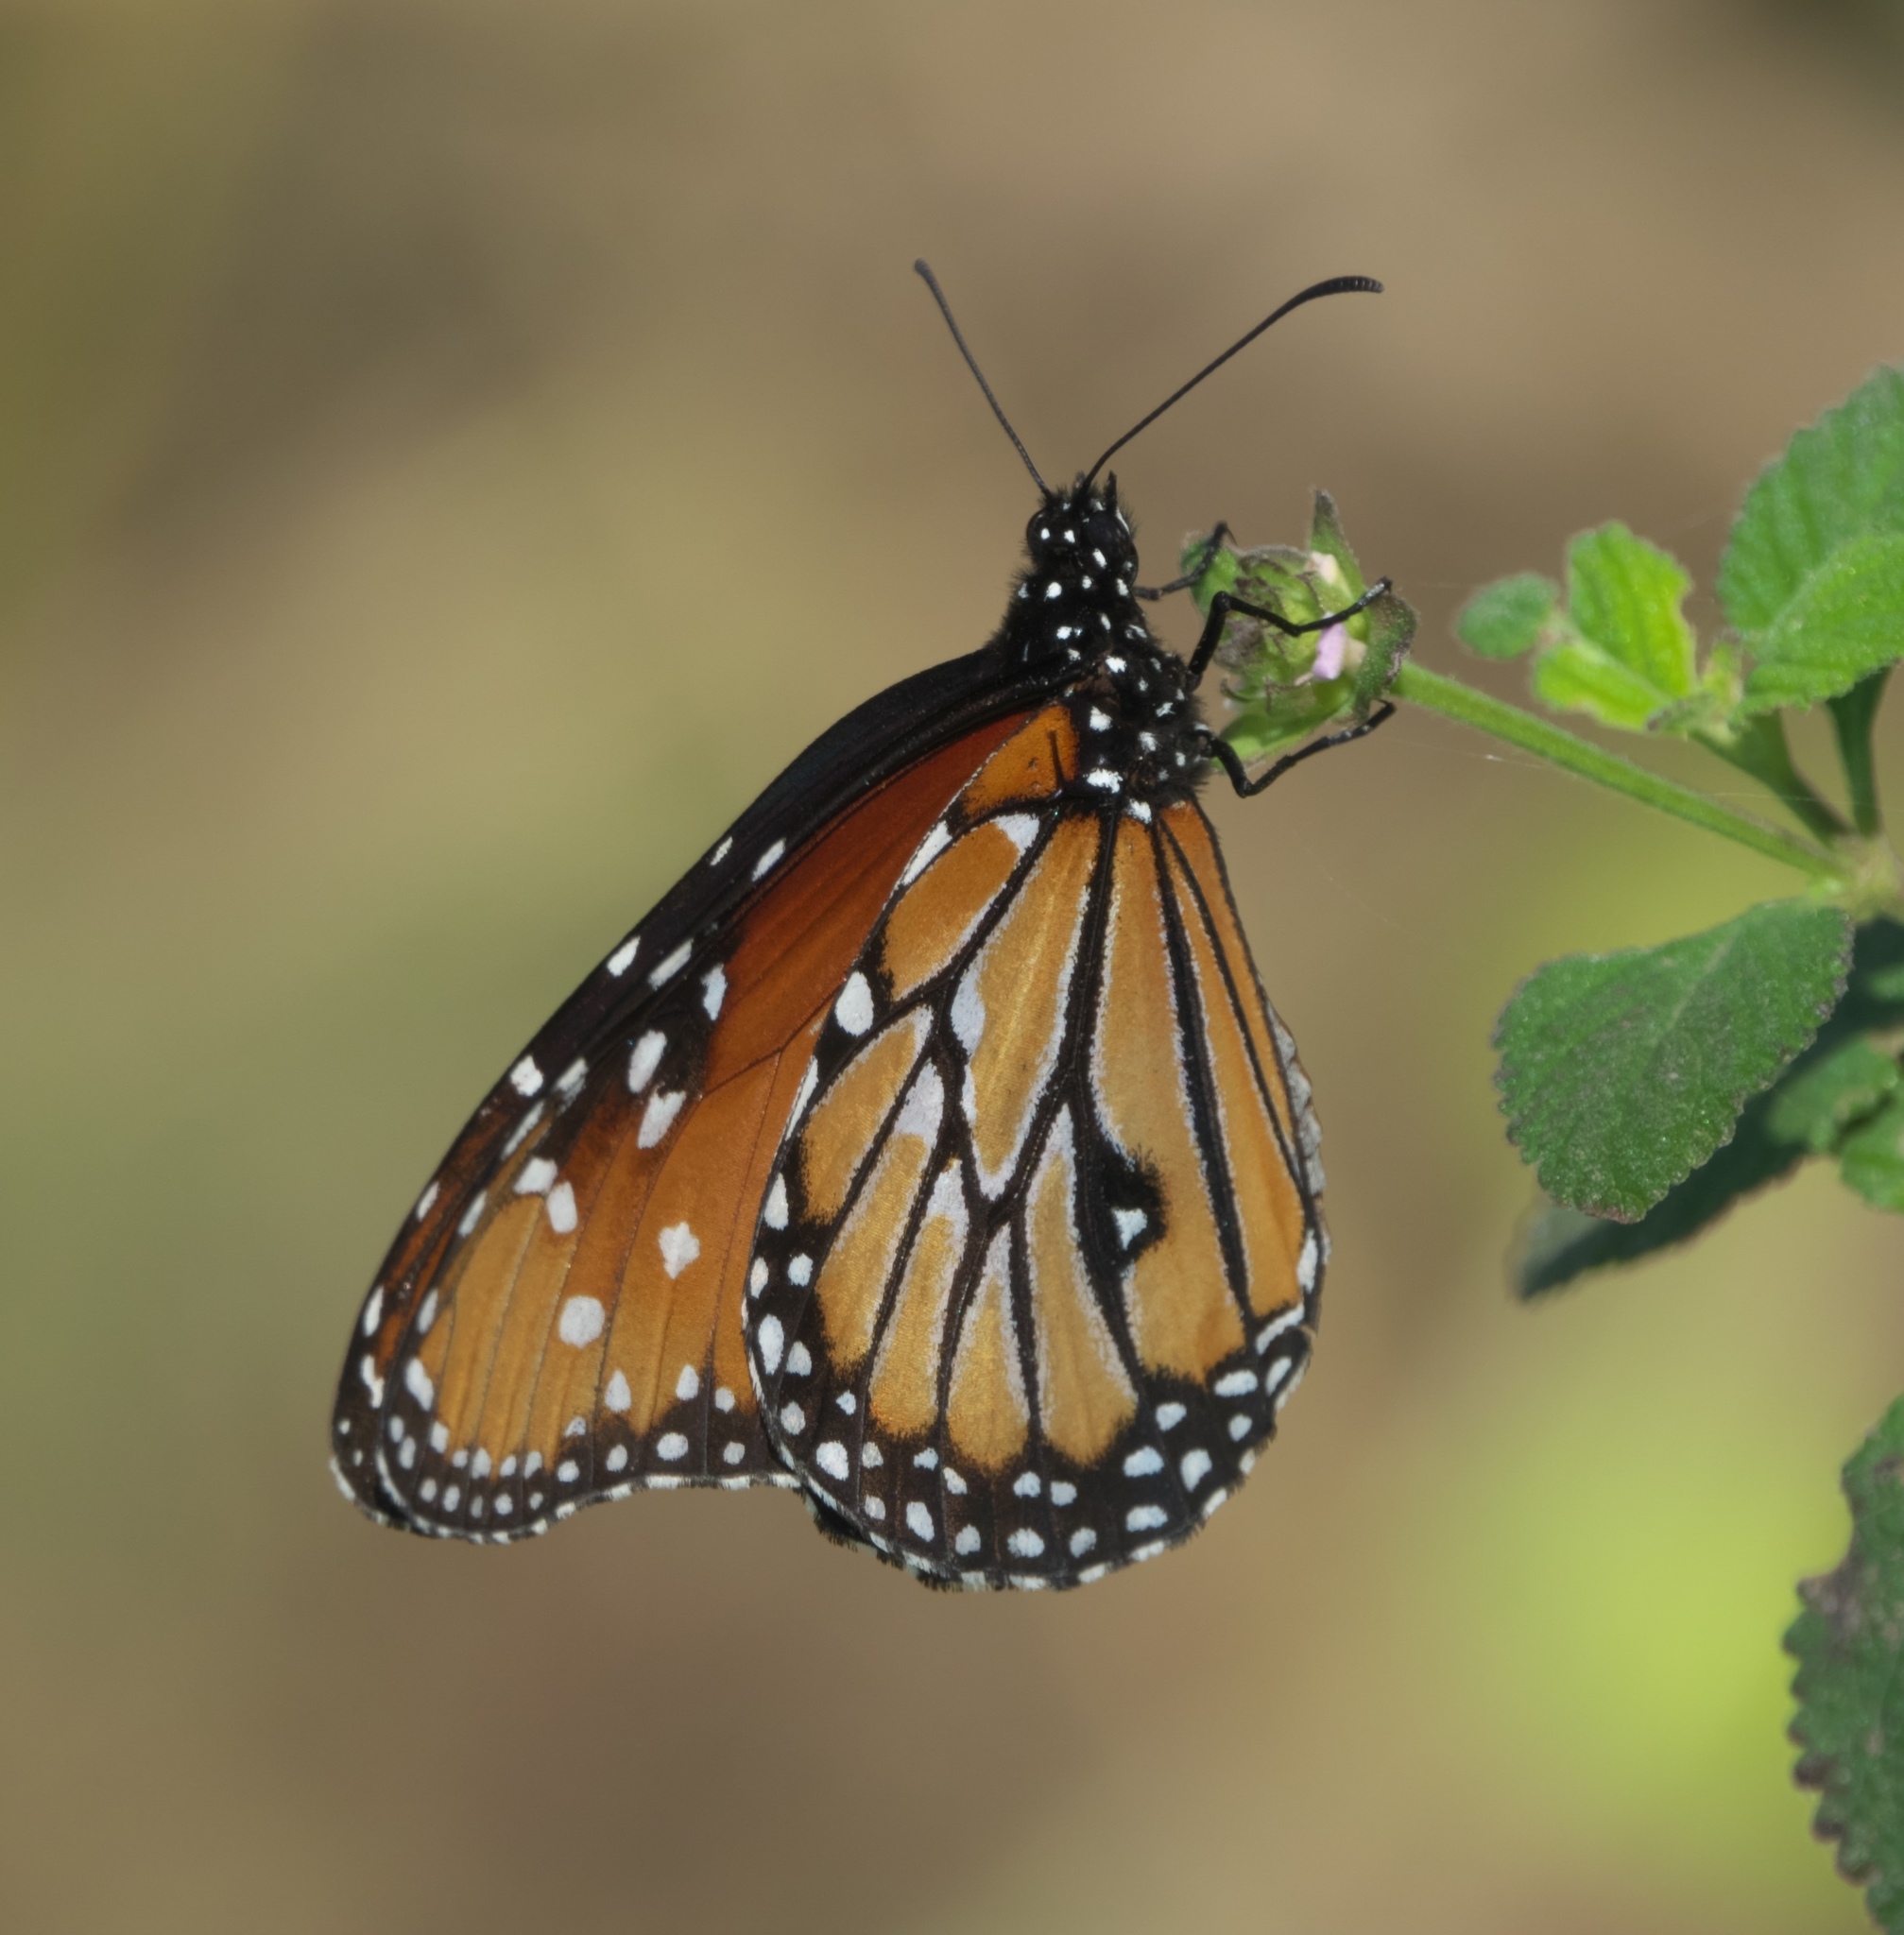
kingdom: Animalia
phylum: Arthropoda
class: Insecta
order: Lepidoptera
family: Nymphalidae
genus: Danaus
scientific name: Danaus gilippus
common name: Queen
